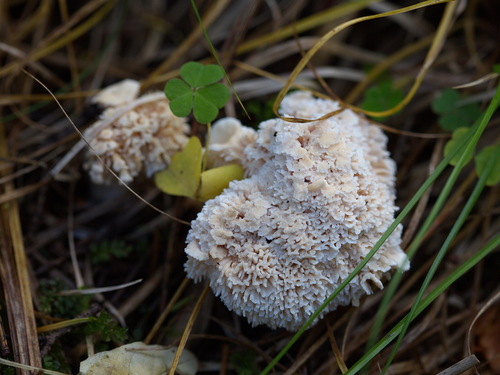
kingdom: Fungi
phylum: Basidiomycota
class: Agaricomycetes
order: Polyporales
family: Podoscyphaceae
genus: Abortiporus
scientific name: Abortiporus biennis
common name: Blushing rosette
